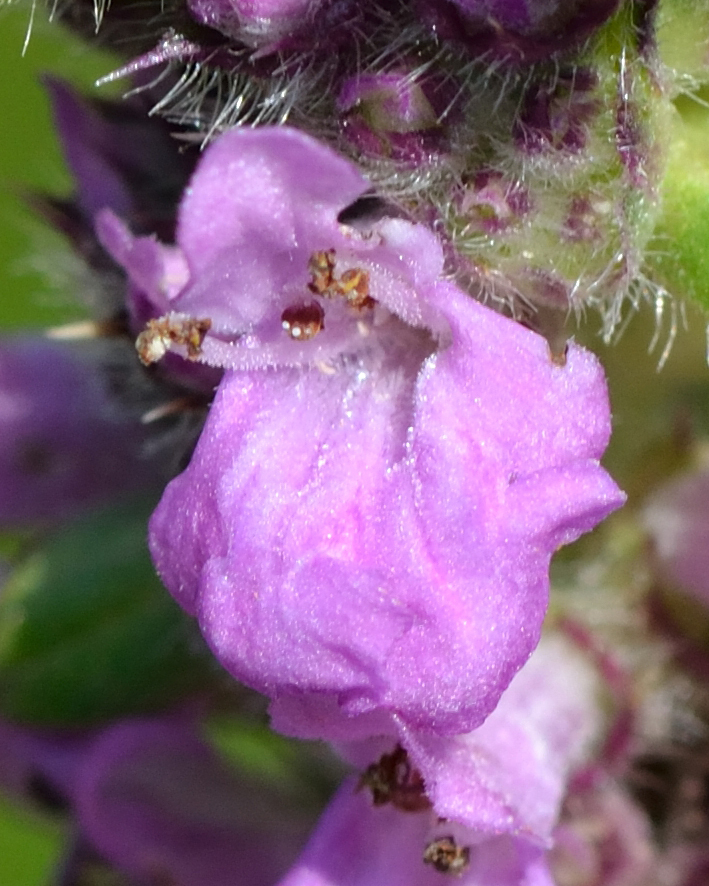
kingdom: Plantae
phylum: Tracheophyta
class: Magnoliopsida
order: Lamiales
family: Lamiaceae
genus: Betonica
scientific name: Betonica officinalis
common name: Bishop's-wort
